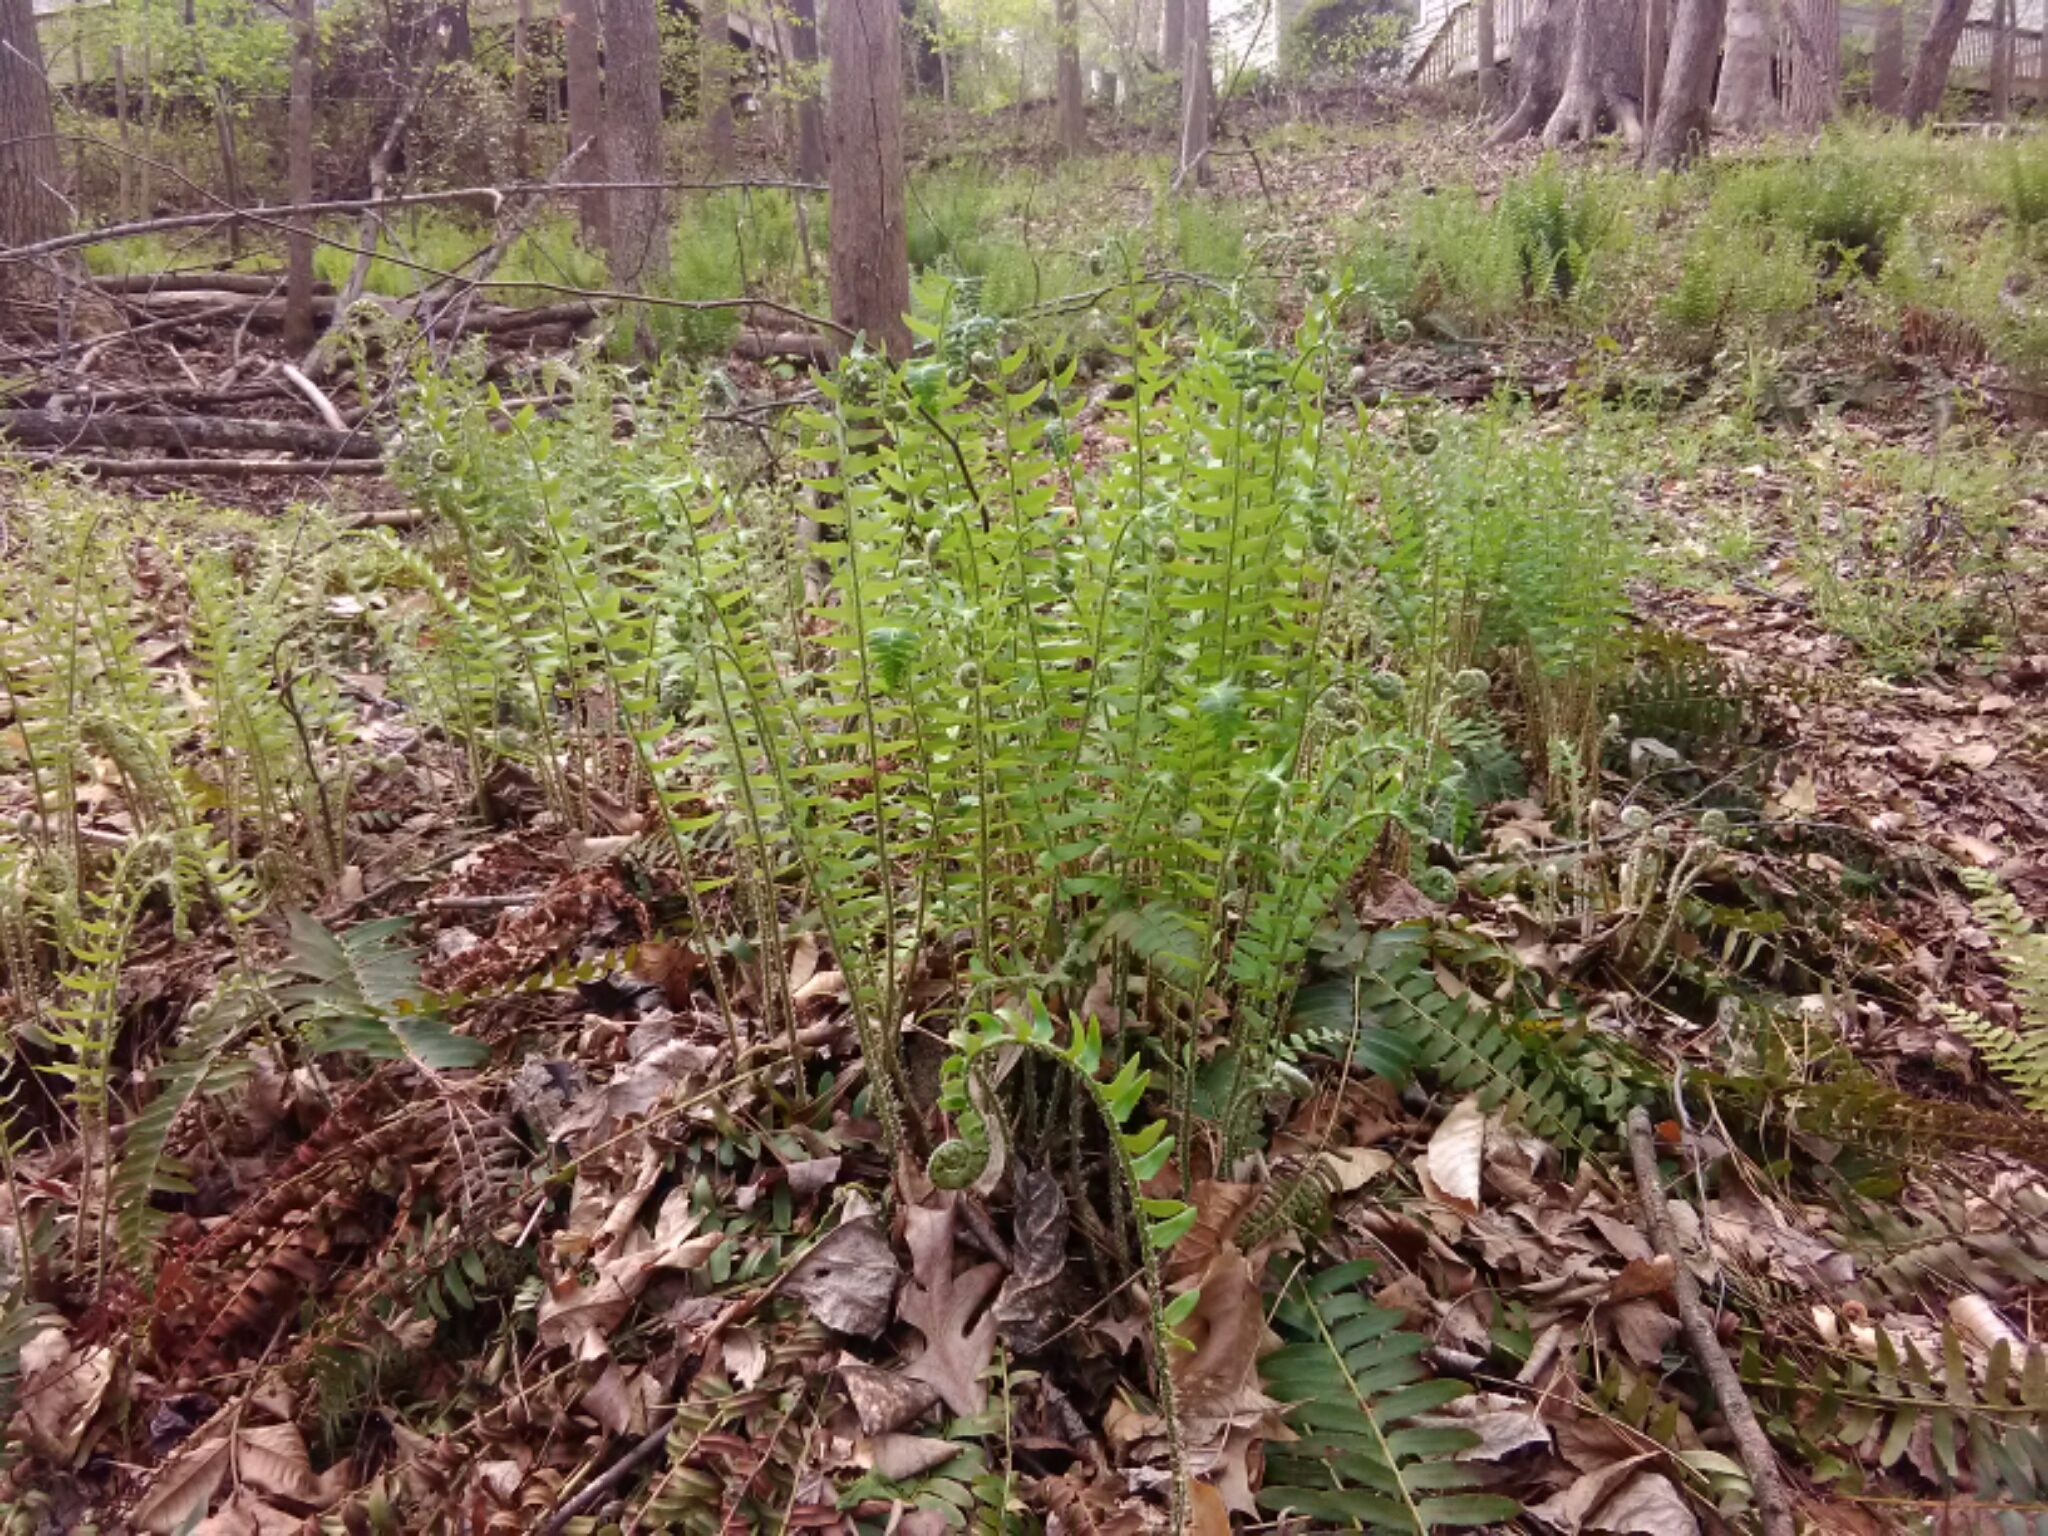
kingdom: Plantae
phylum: Tracheophyta
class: Polypodiopsida
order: Polypodiales
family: Dryopteridaceae
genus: Polystichum
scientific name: Polystichum acrostichoides
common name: Christmas fern
